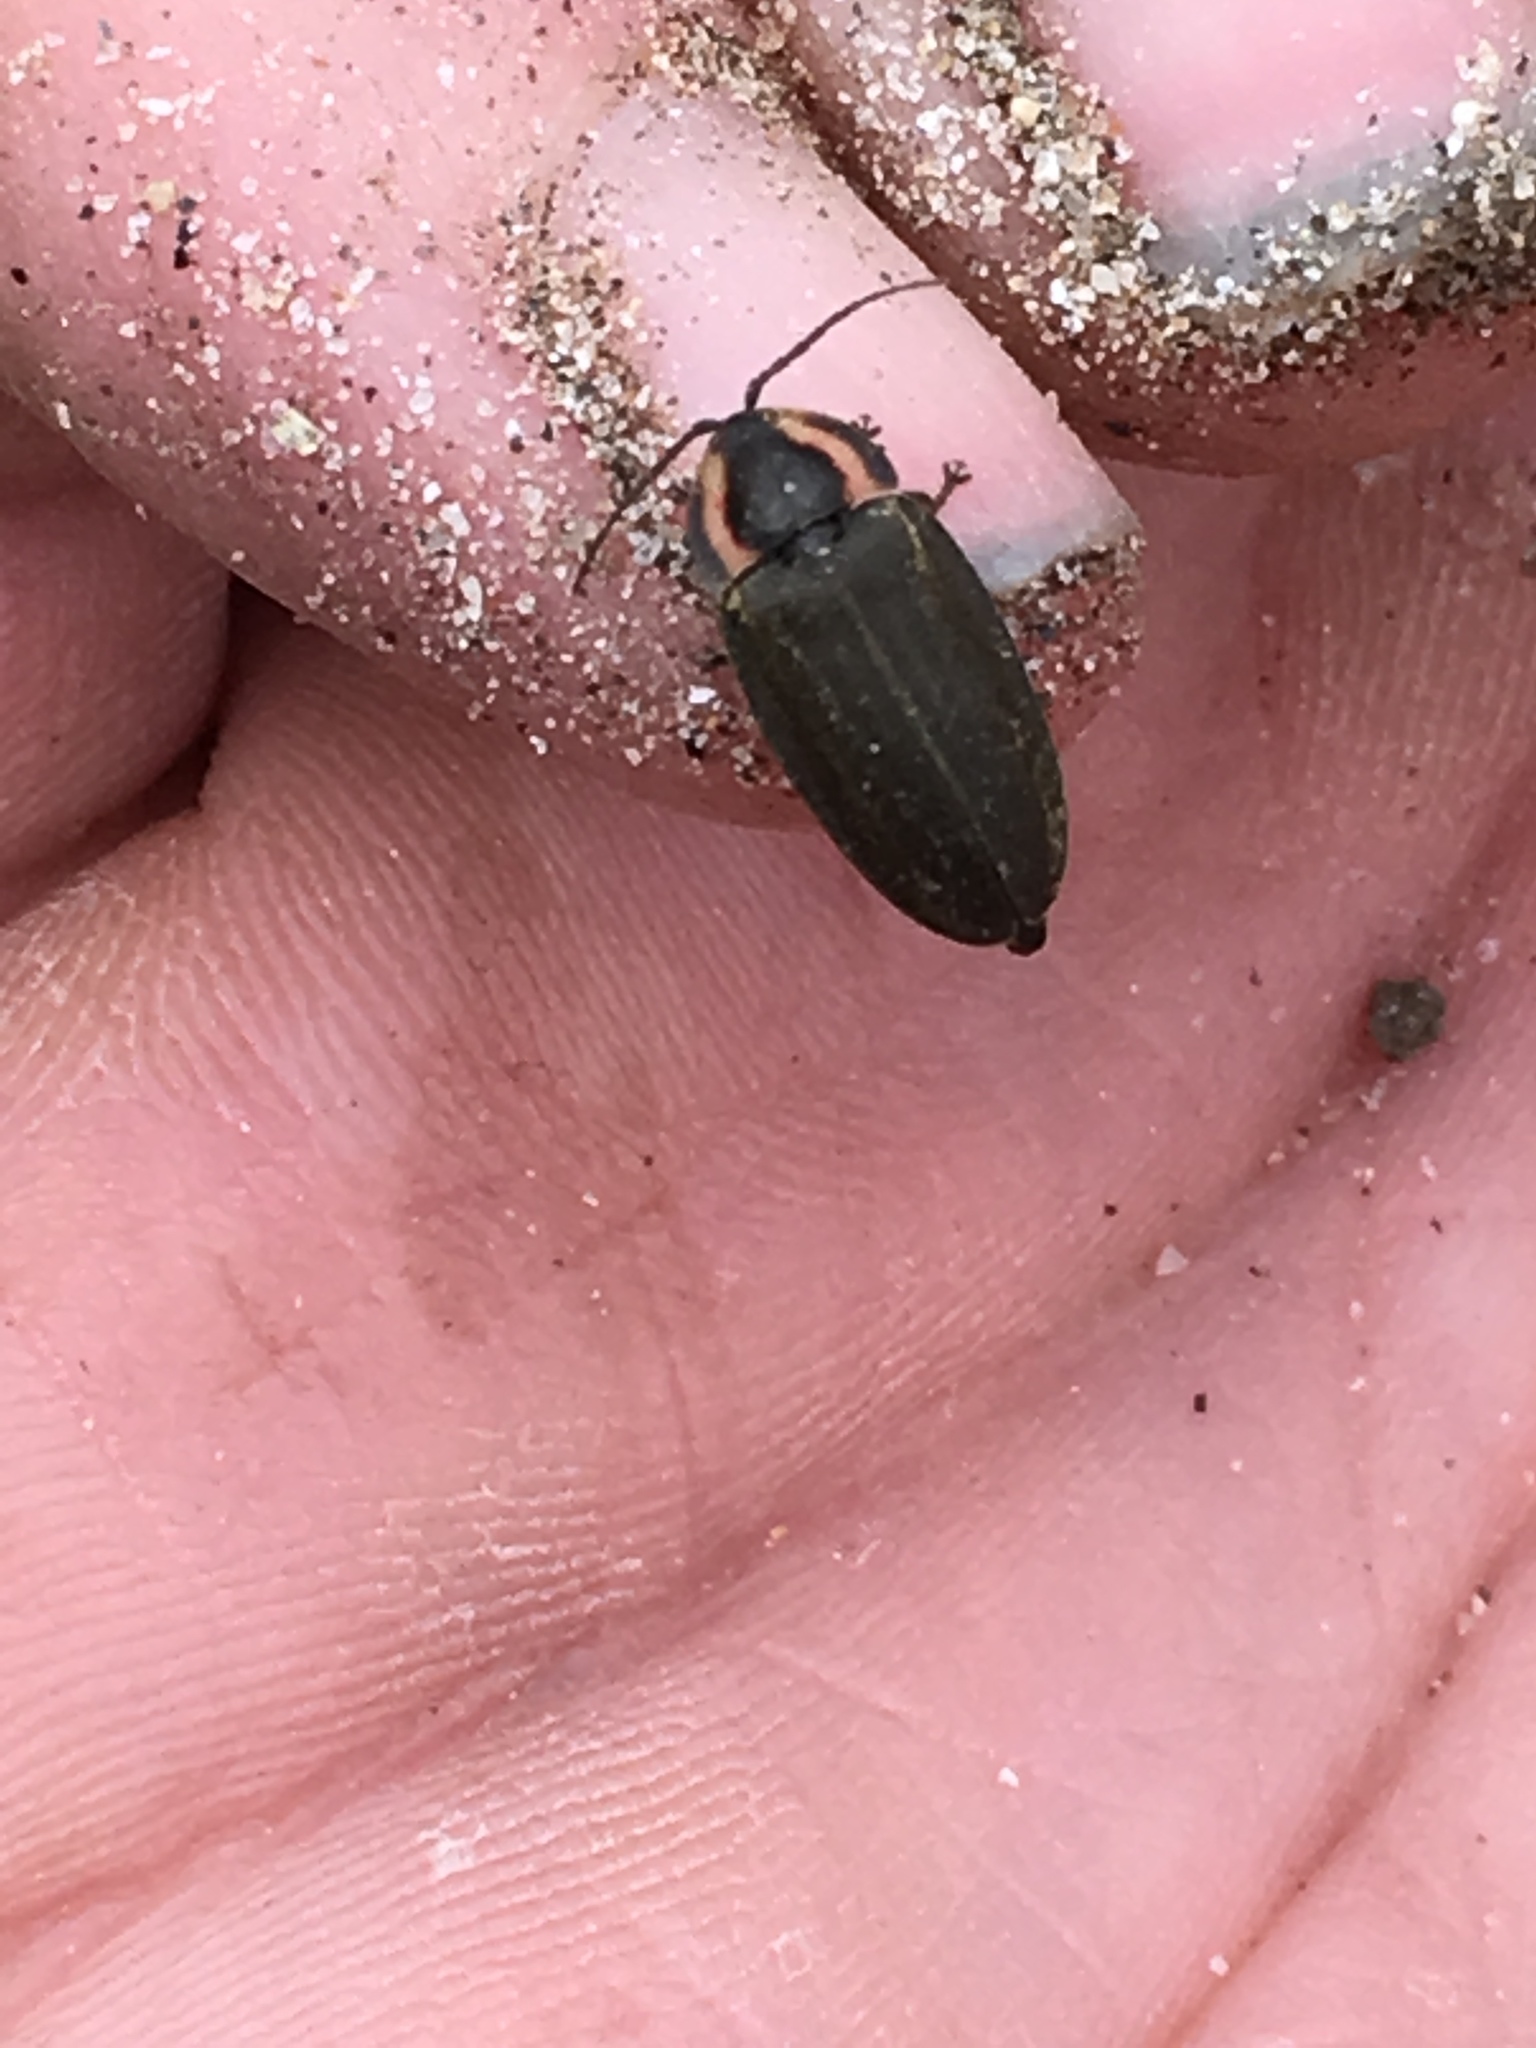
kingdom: Animalia
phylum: Arthropoda
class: Insecta
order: Coleoptera
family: Lampyridae
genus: Photinus
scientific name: Photinus corrusca
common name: Winter firefly
